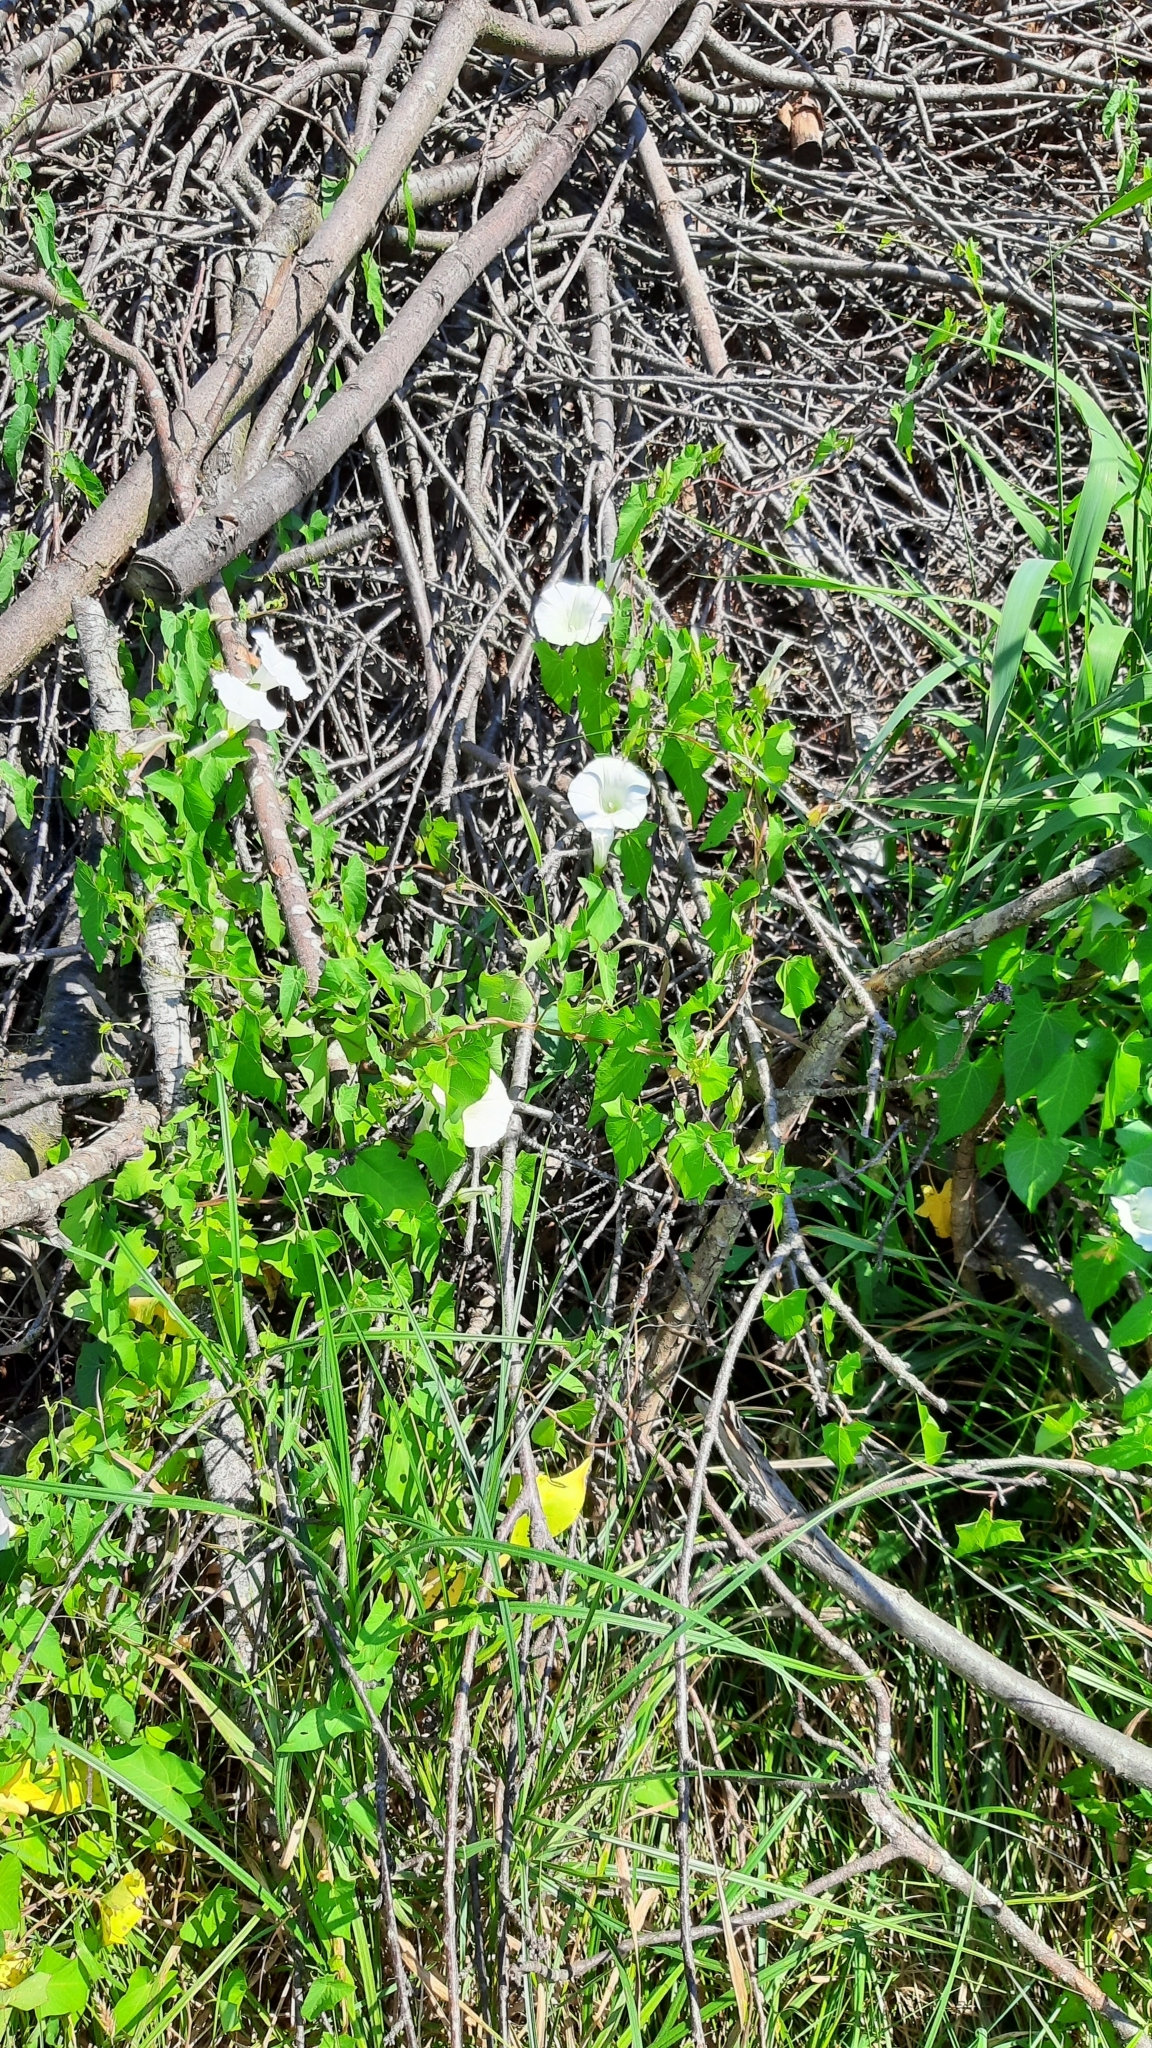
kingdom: Plantae
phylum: Tracheophyta
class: Magnoliopsida
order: Solanales
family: Convolvulaceae
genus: Calystegia
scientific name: Calystegia sepium
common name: Hedge bindweed
